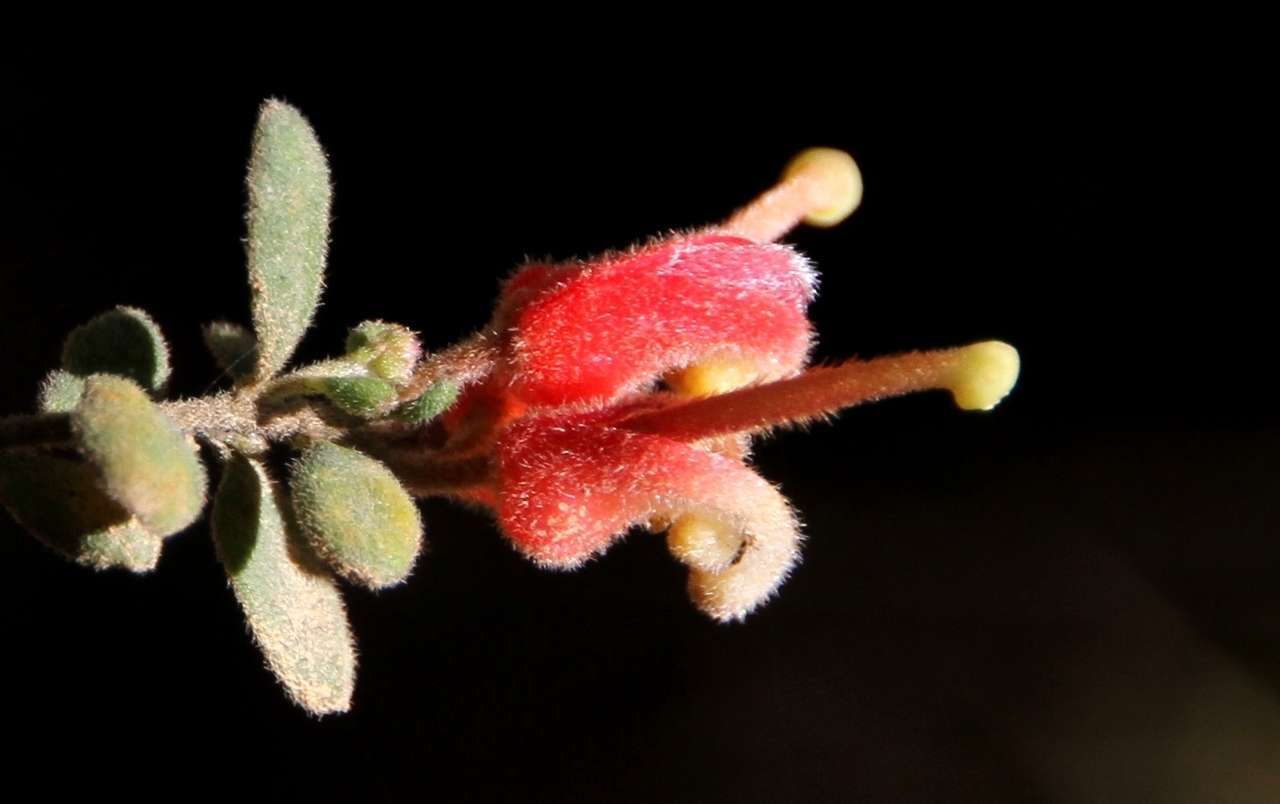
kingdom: Plantae
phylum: Tracheophyta
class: Magnoliopsida
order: Proteales
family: Proteaceae
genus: Grevillea
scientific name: Grevillea alpina
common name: Catclaws grevillea
